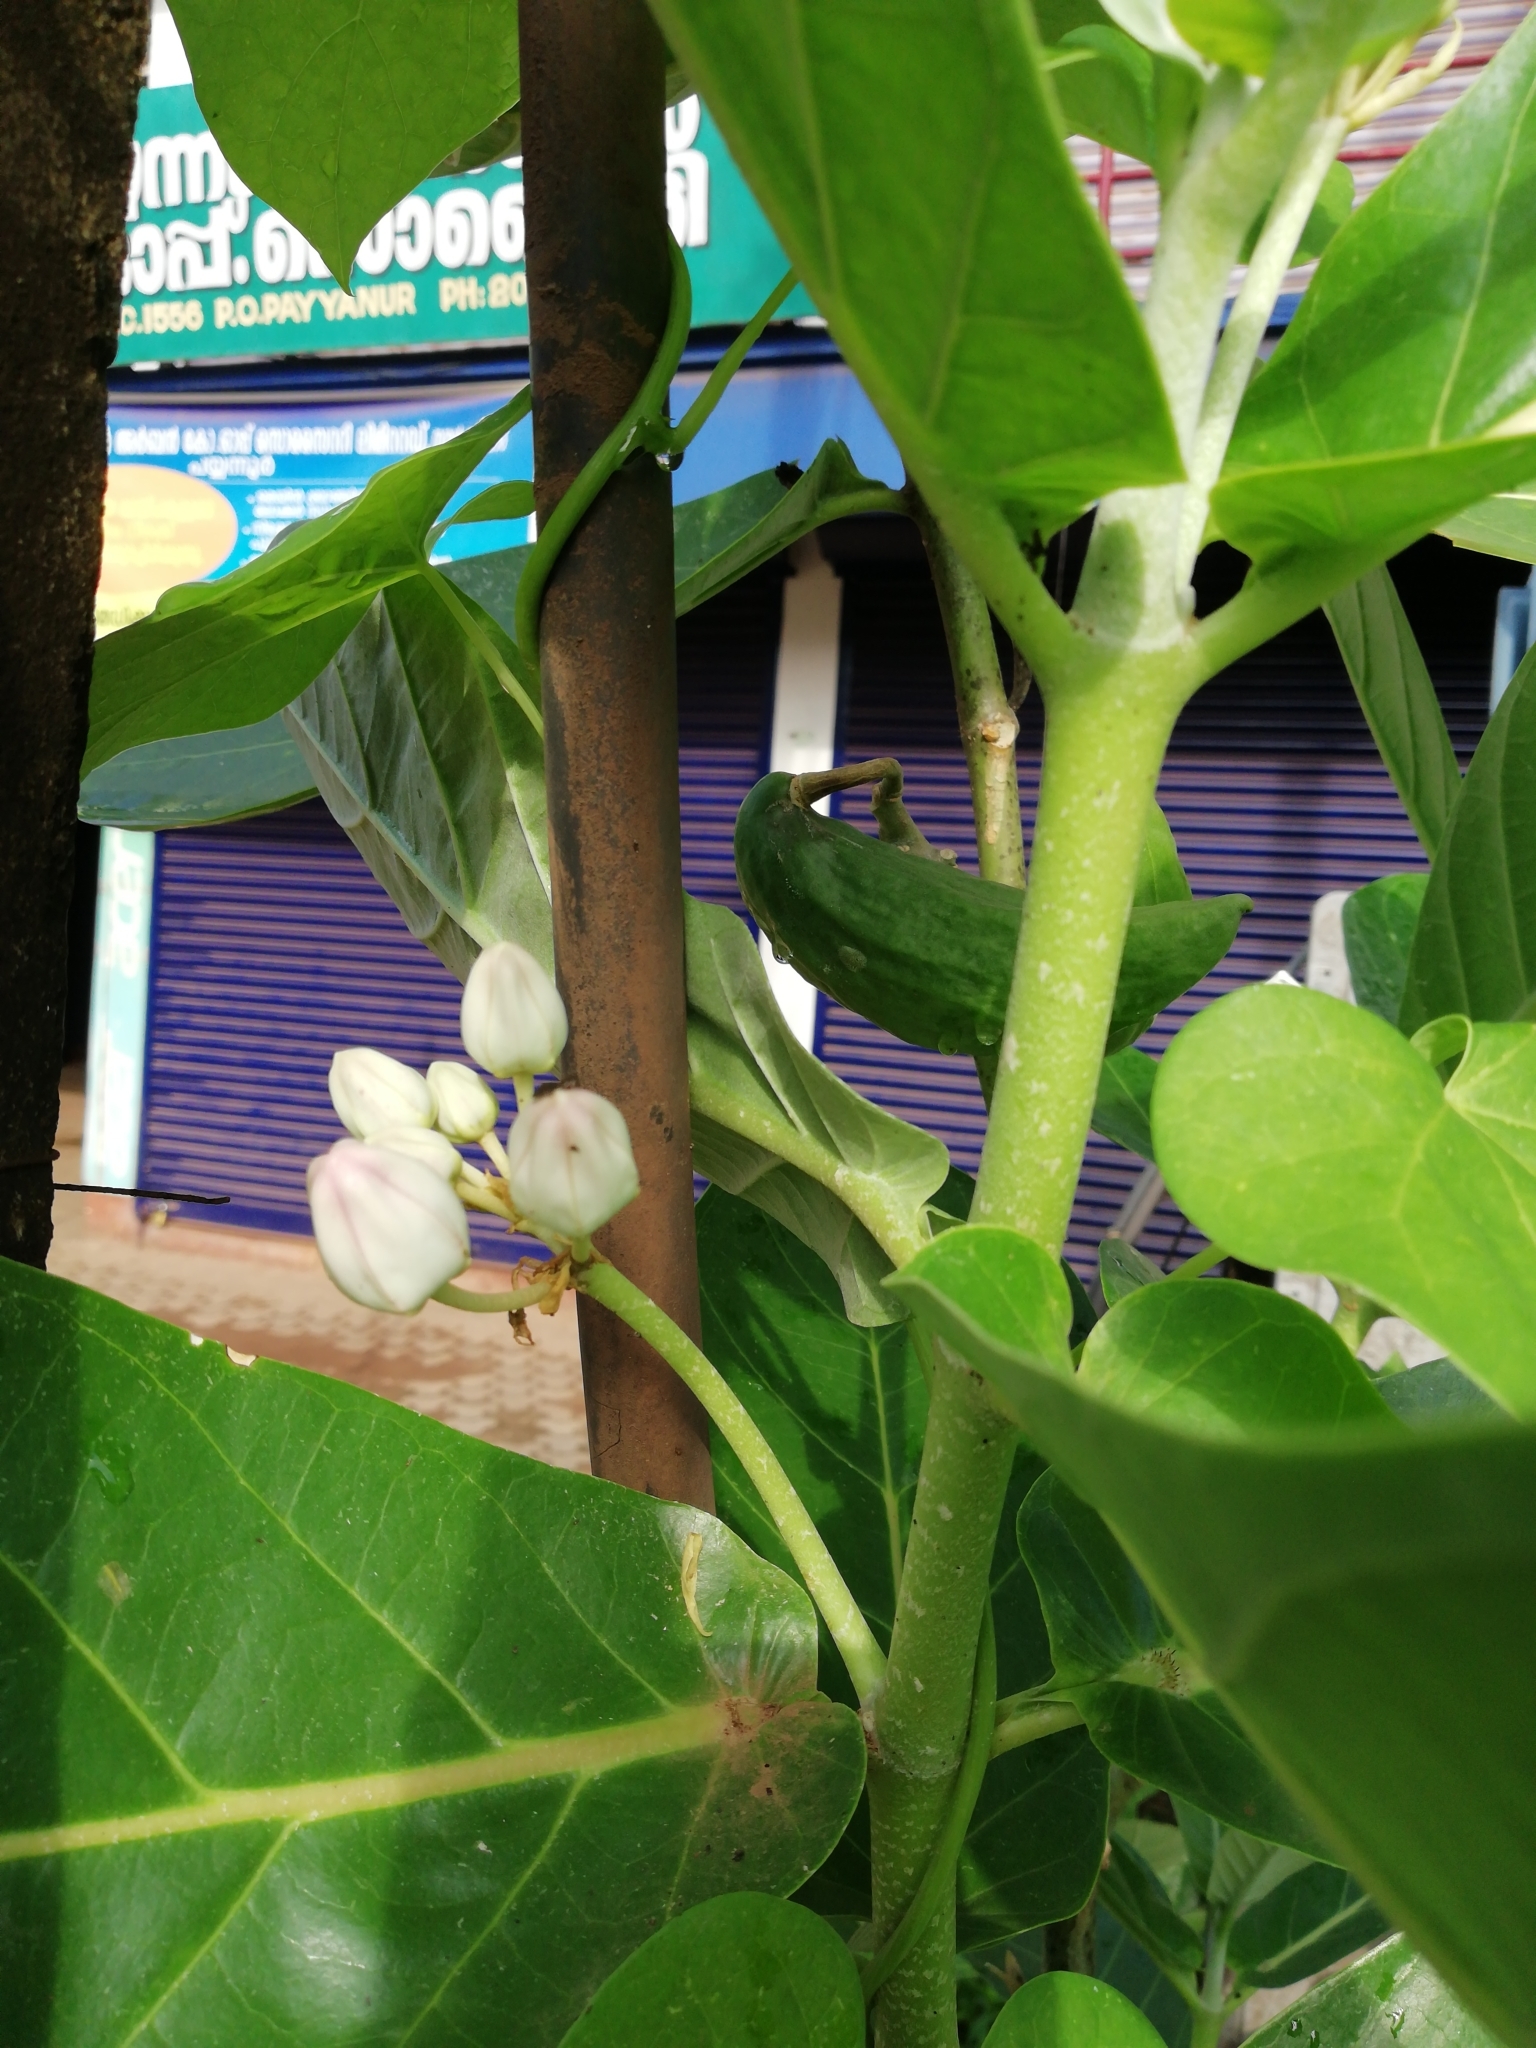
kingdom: Plantae
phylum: Tracheophyta
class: Magnoliopsida
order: Gentianales
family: Apocynaceae
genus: Calotropis
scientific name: Calotropis gigantea
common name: Crown flower
